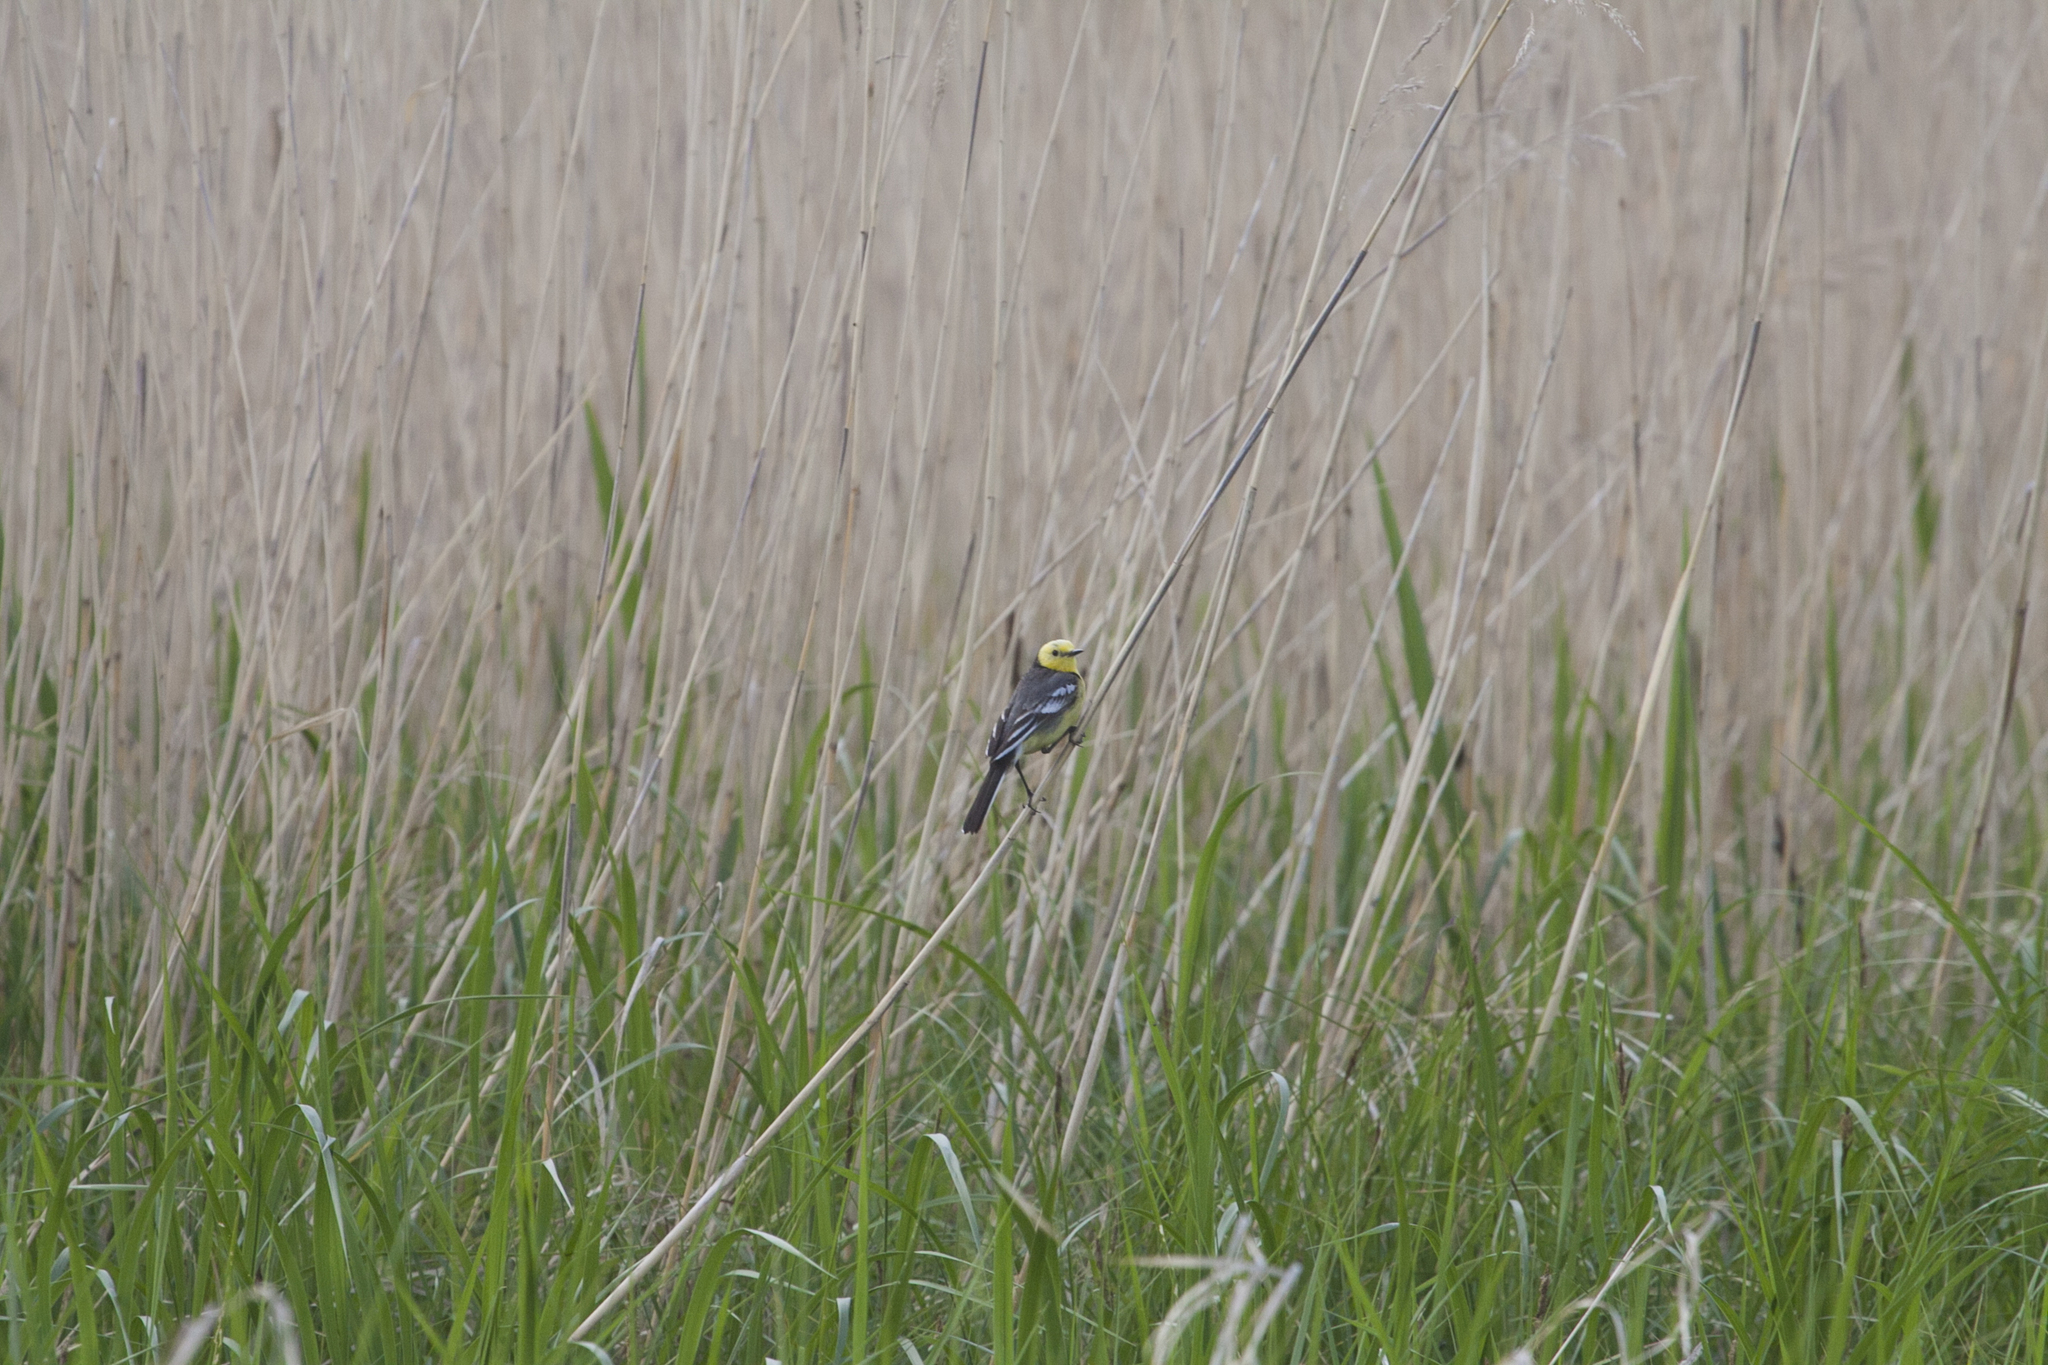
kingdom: Animalia
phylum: Chordata
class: Aves
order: Passeriformes
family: Motacillidae
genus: Motacilla
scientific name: Motacilla citreola
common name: Citrine wagtail
